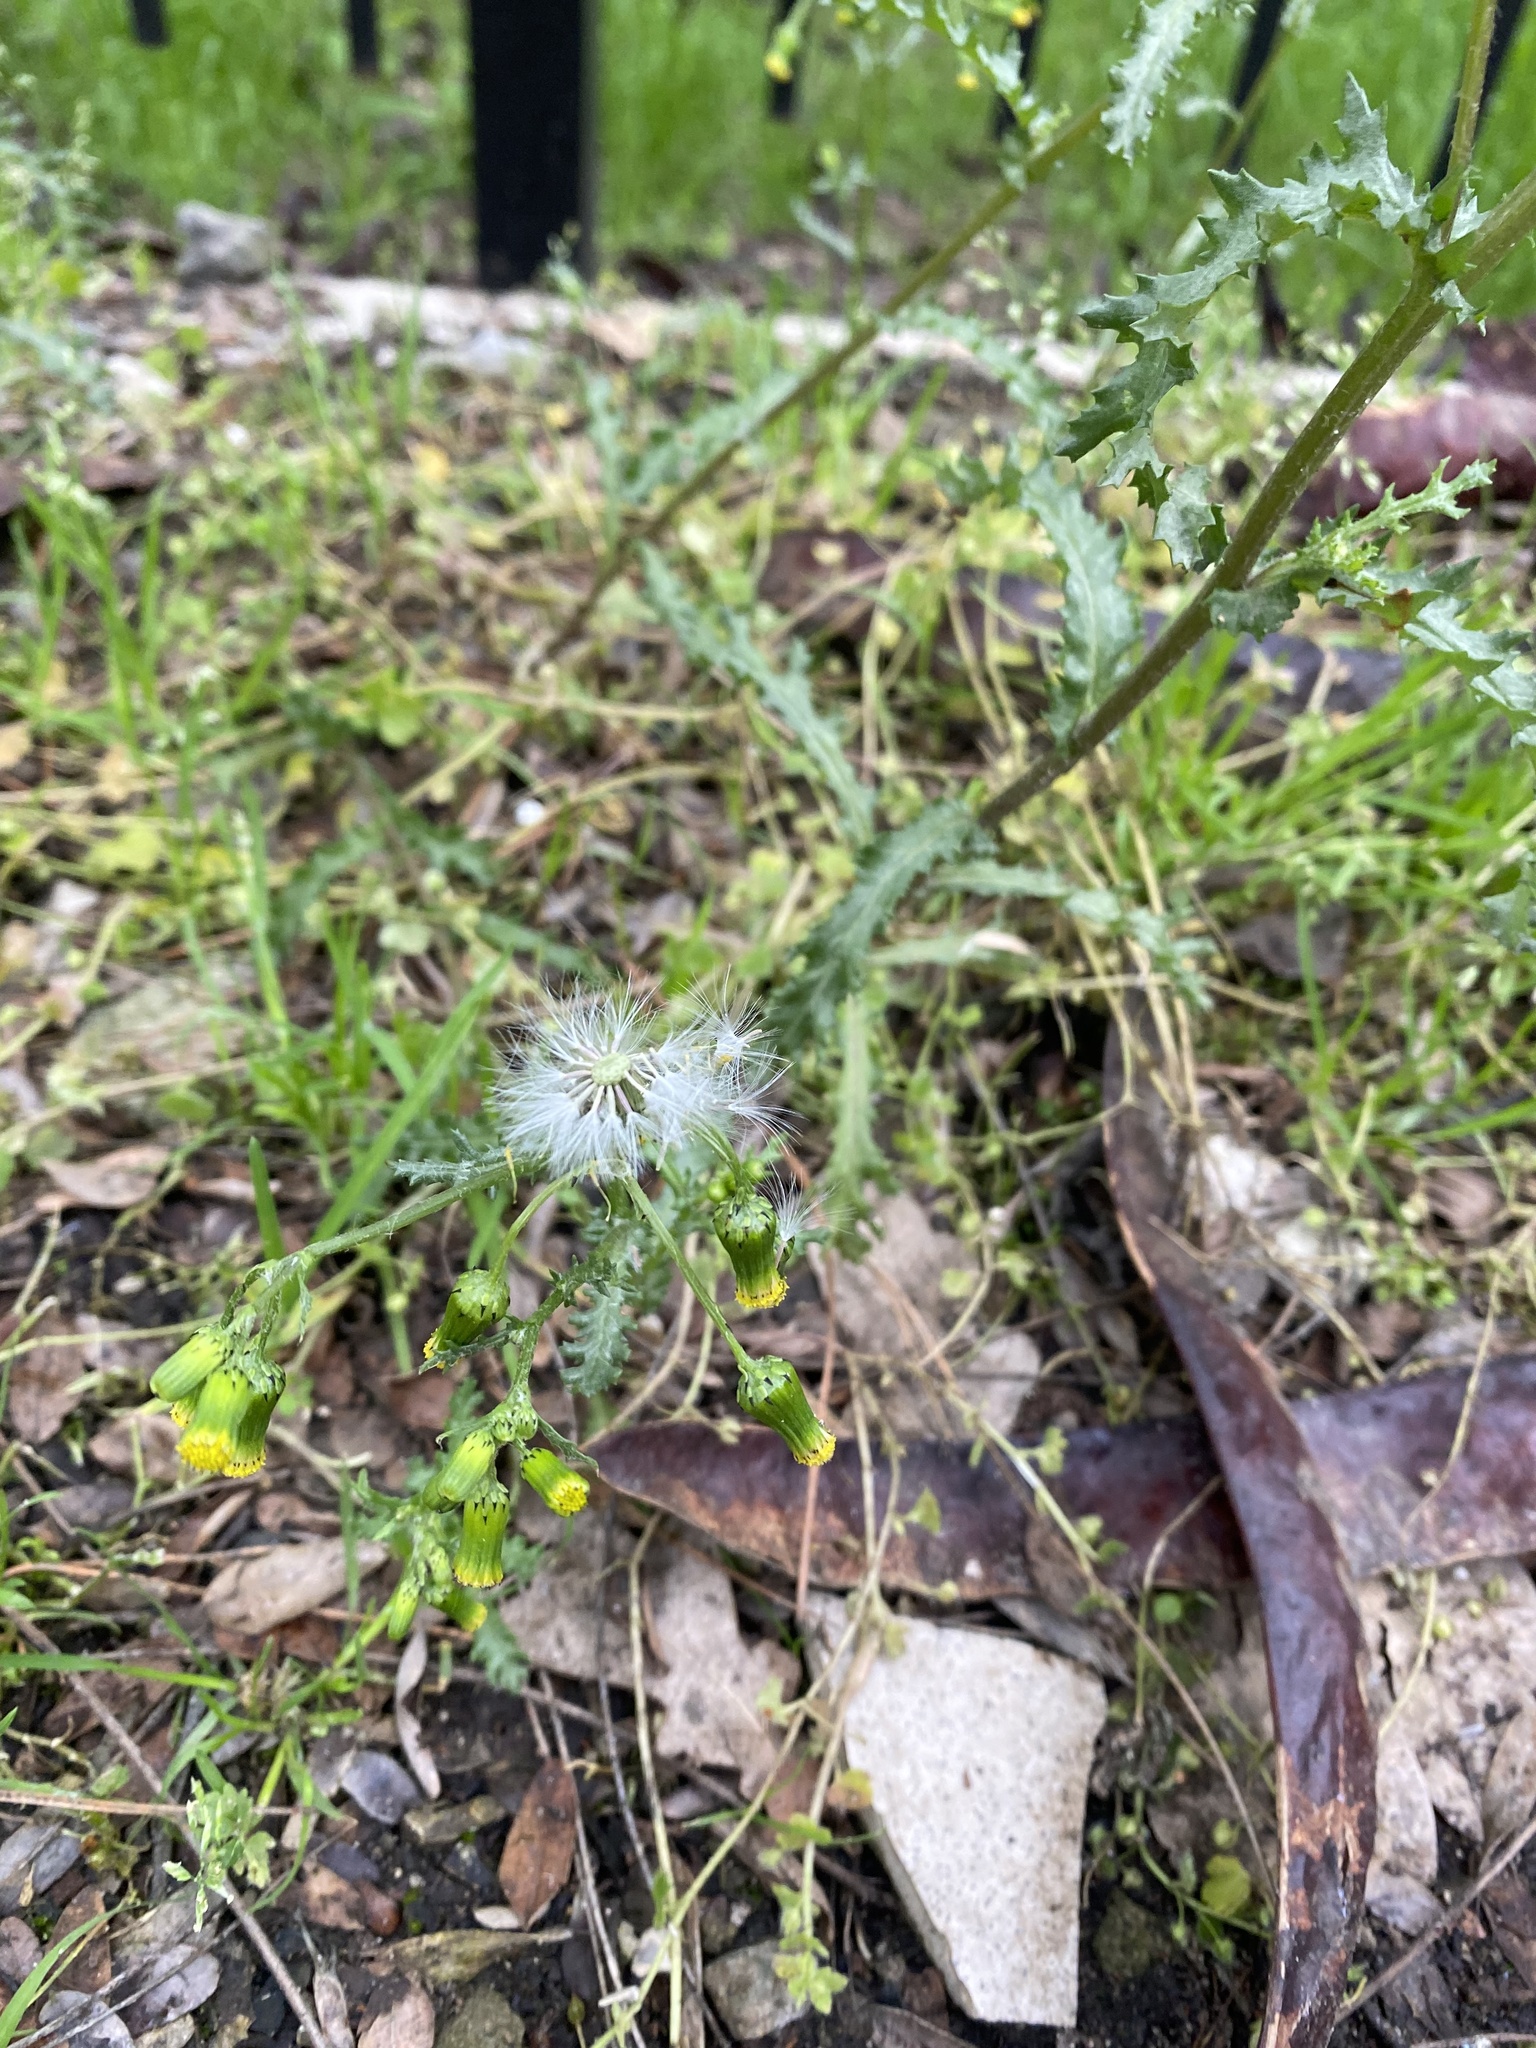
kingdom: Plantae
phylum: Tracheophyta
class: Magnoliopsida
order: Asterales
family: Asteraceae
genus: Senecio
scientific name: Senecio vulgaris
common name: Old-man-in-the-spring
